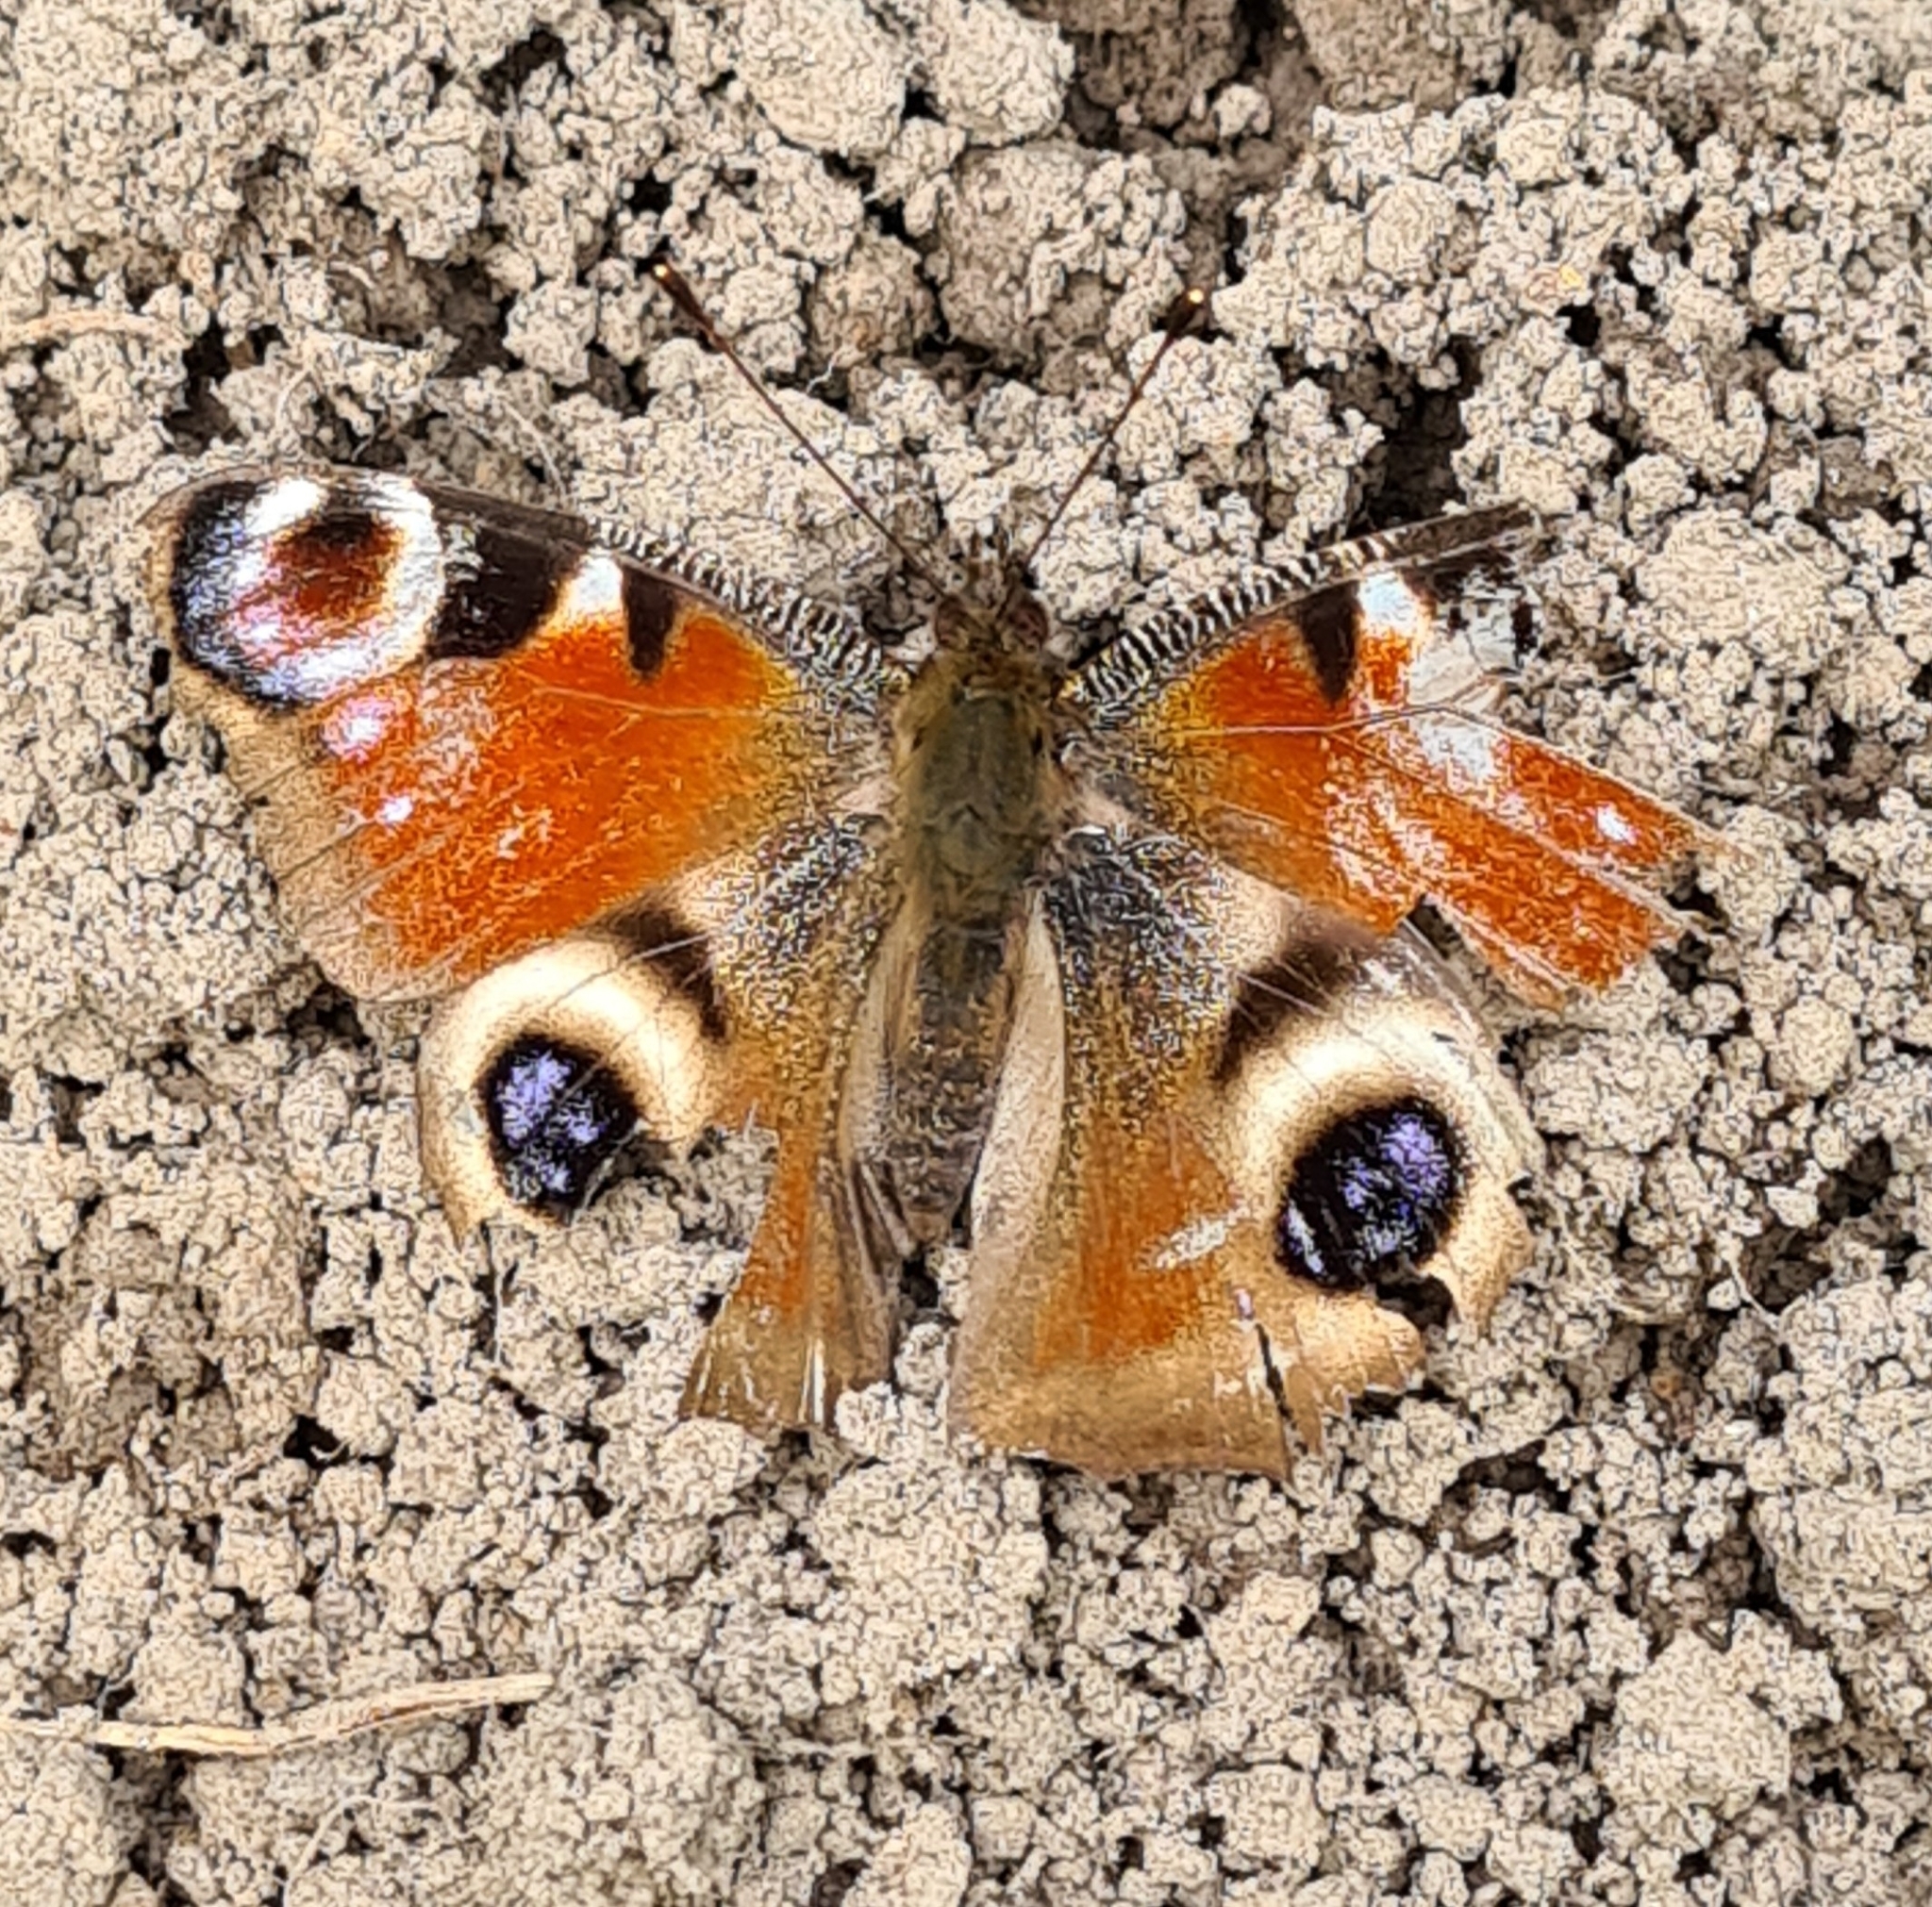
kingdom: Animalia
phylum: Arthropoda
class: Insecta
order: Lepidoptera
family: Nymphalidae
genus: Aglais
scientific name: Aglais io
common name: Peacock
